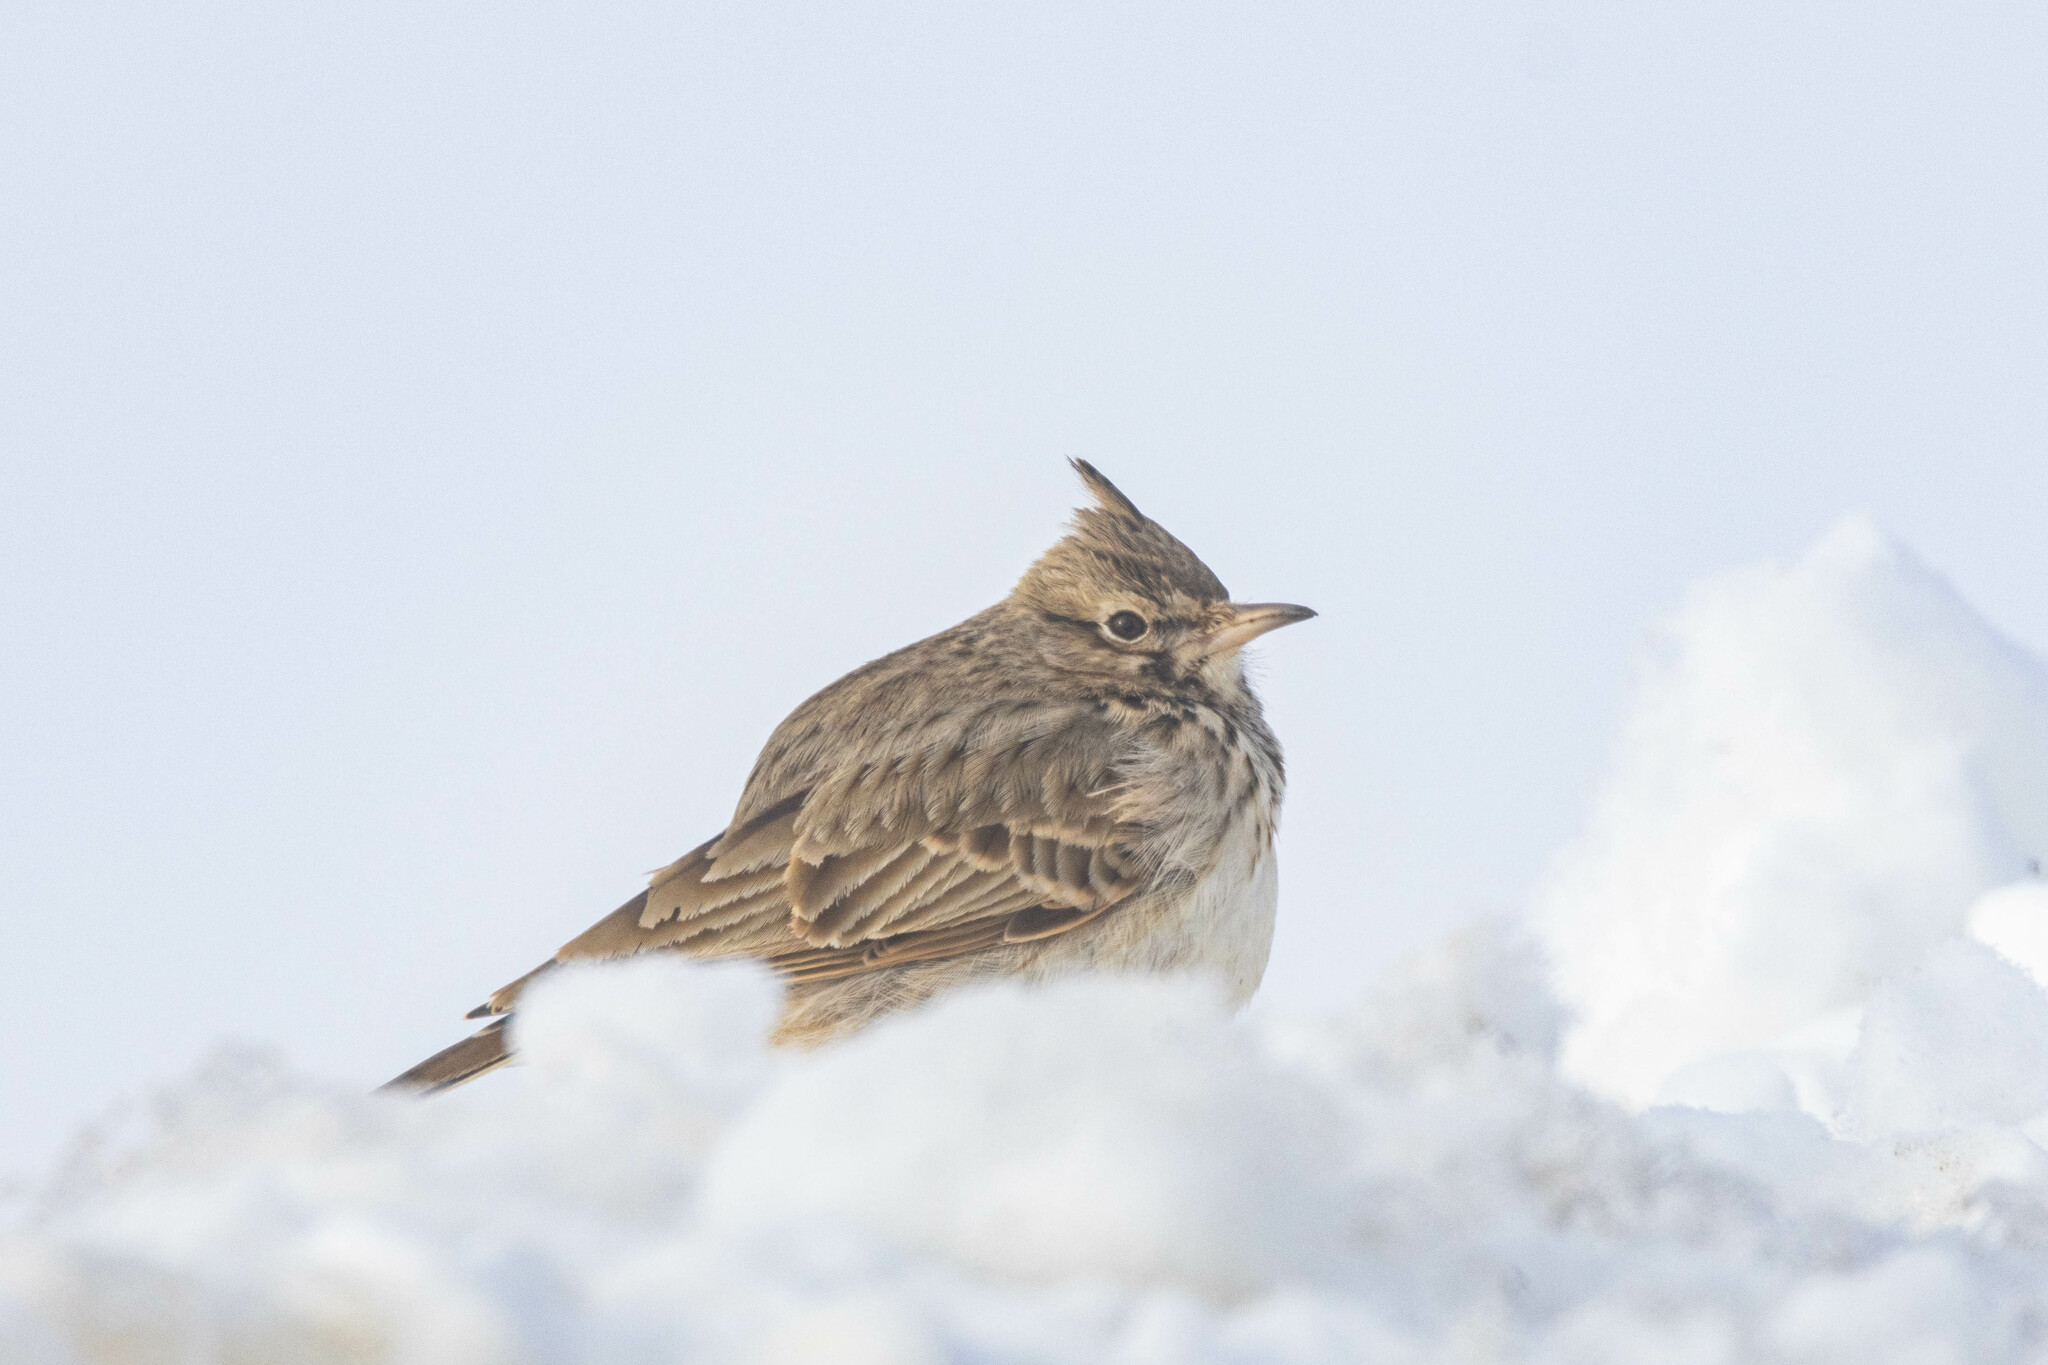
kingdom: Animalia
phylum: Chordata
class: Aves
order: Passeriformes
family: Alaudidae
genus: Galerida
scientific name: Galerida cristata
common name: Crested lark
